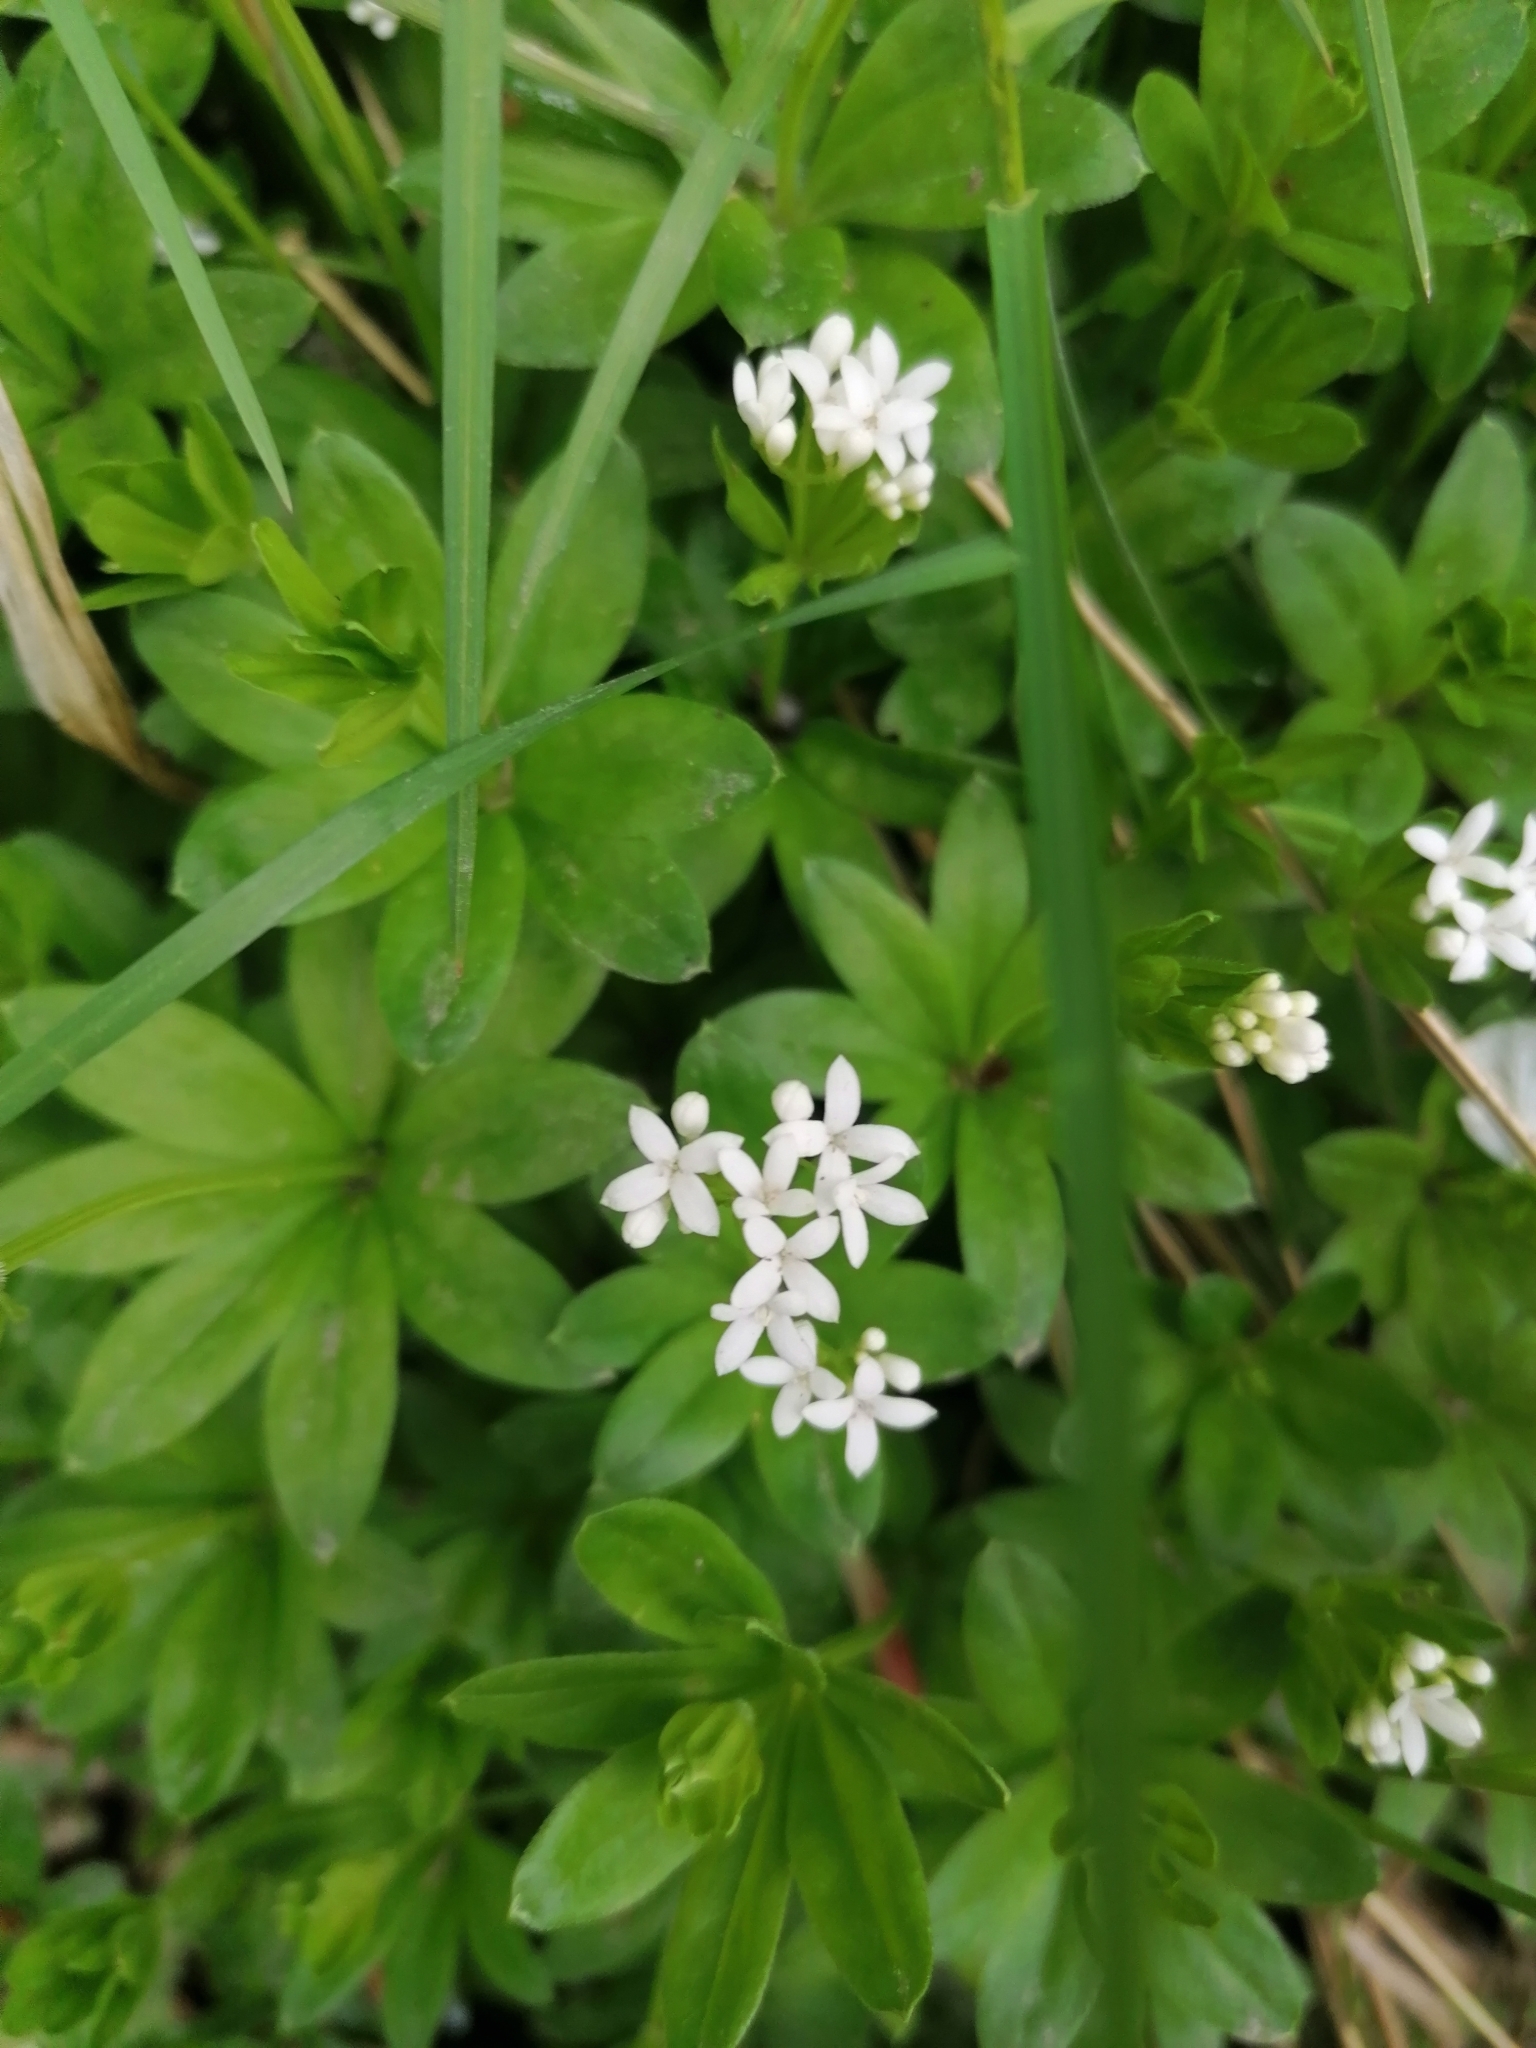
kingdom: Plantae
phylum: Tracheophyta
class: Magnoliopsida
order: Gentianales
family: Rubiaceae
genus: Galium
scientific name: Galium odoratum
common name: Sweet woodruff
